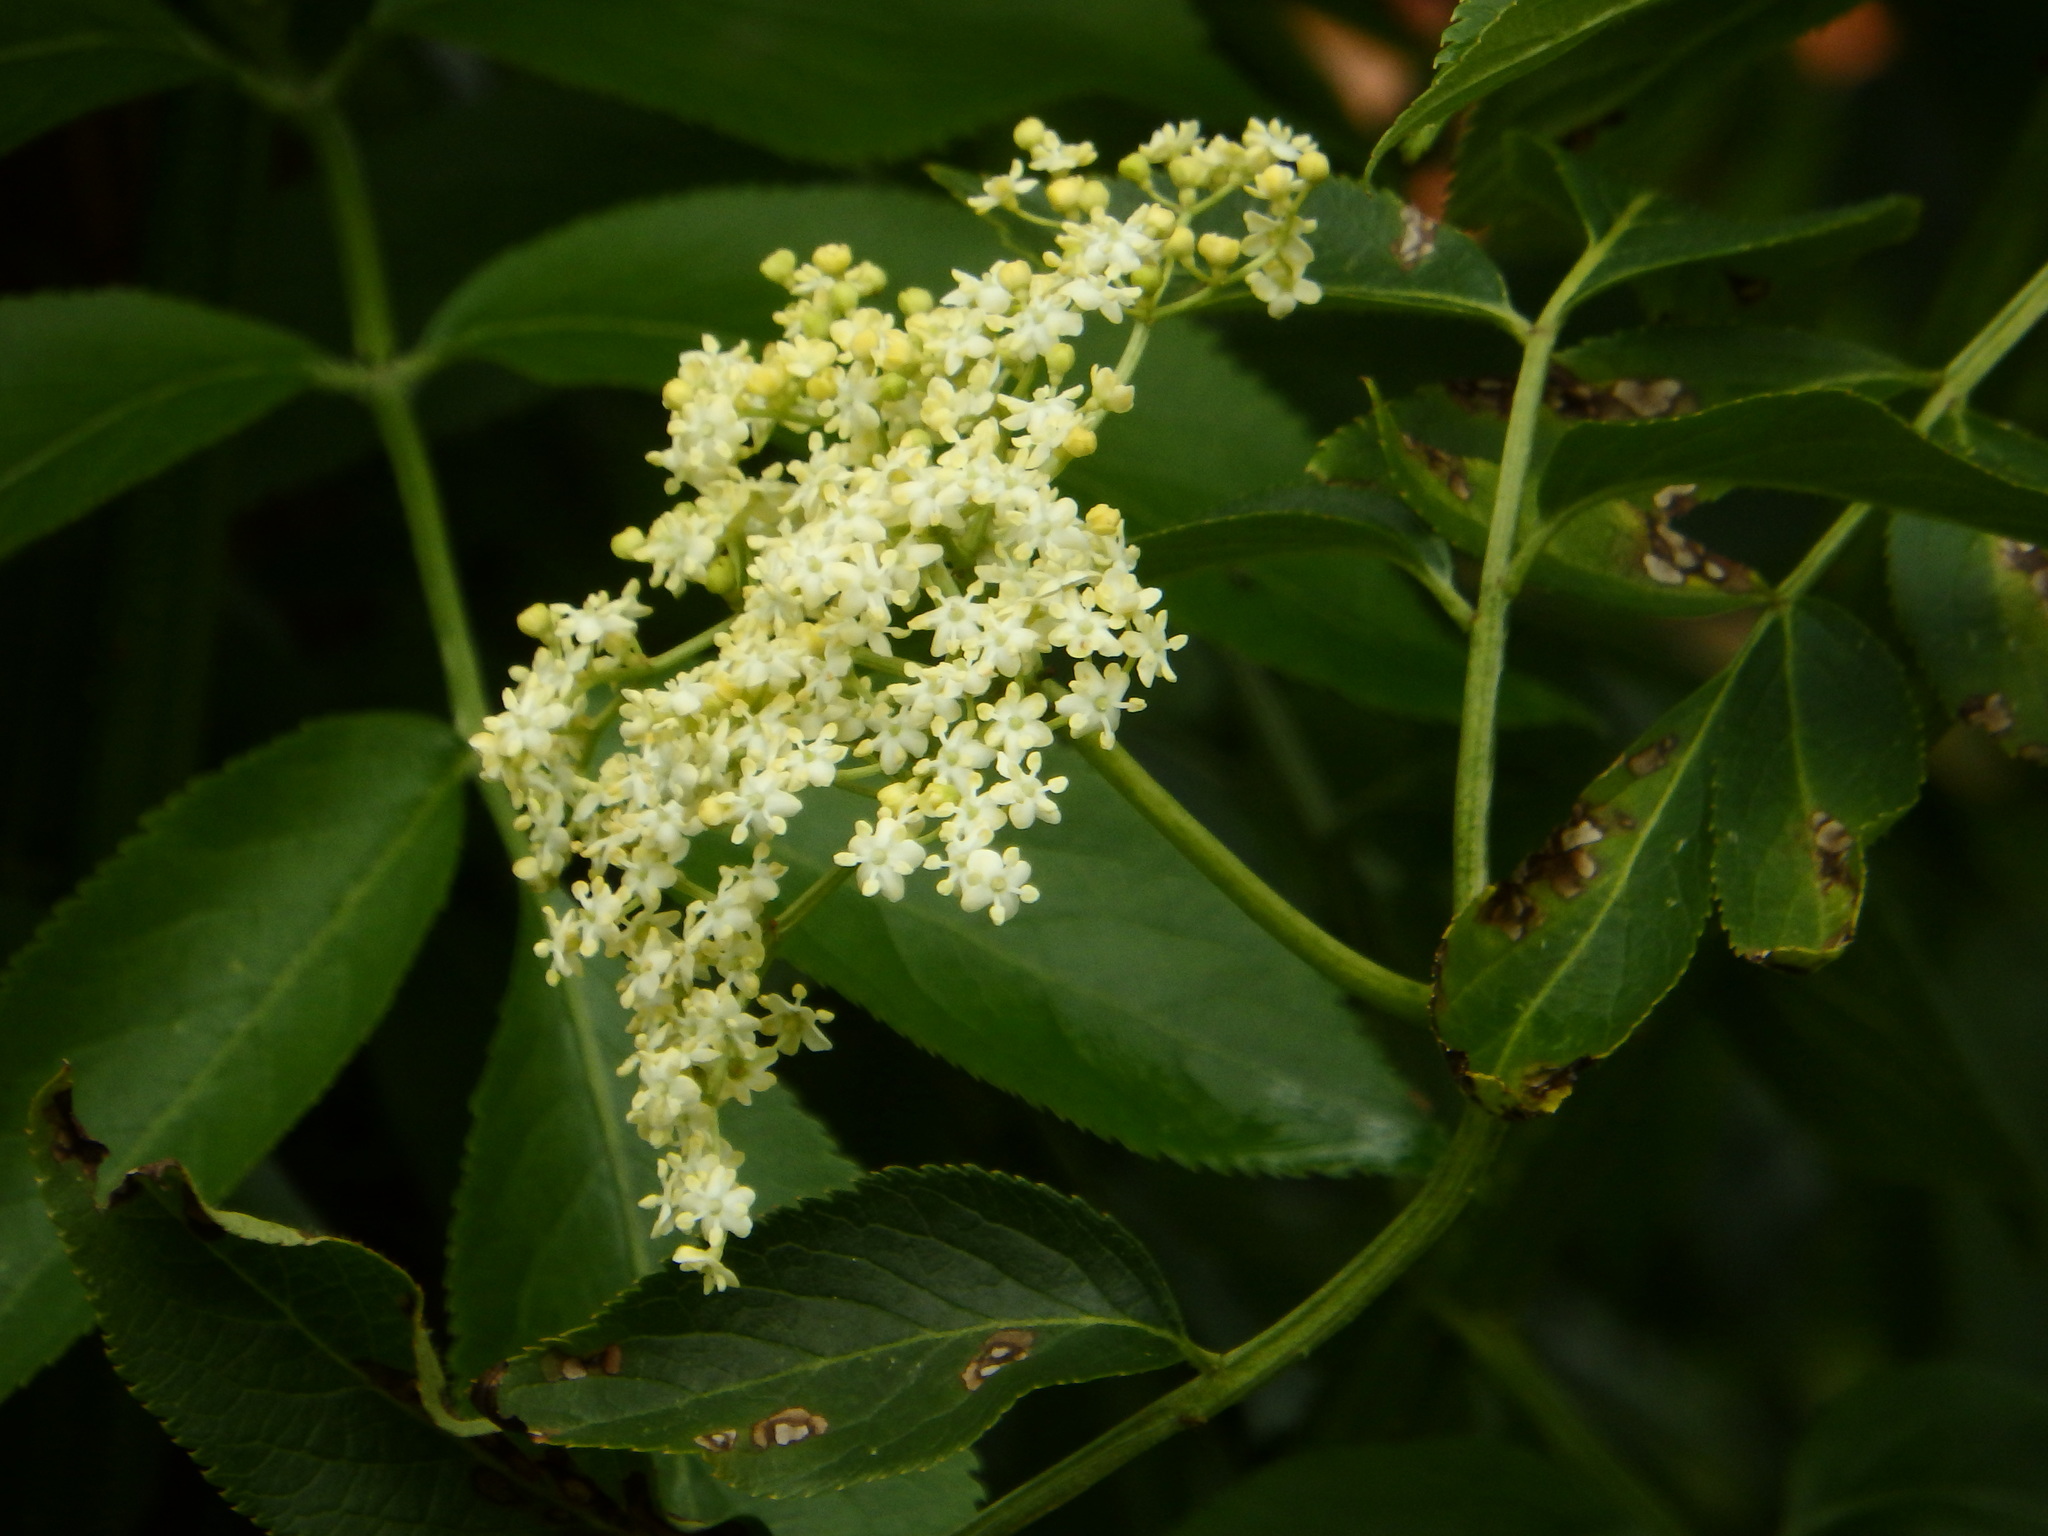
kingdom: Plantae
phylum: Tracheophyta
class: Magnoliopsida
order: Dipsacales
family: Viburnaceae
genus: Sambucus
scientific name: Sambucus nigra
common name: Elder
